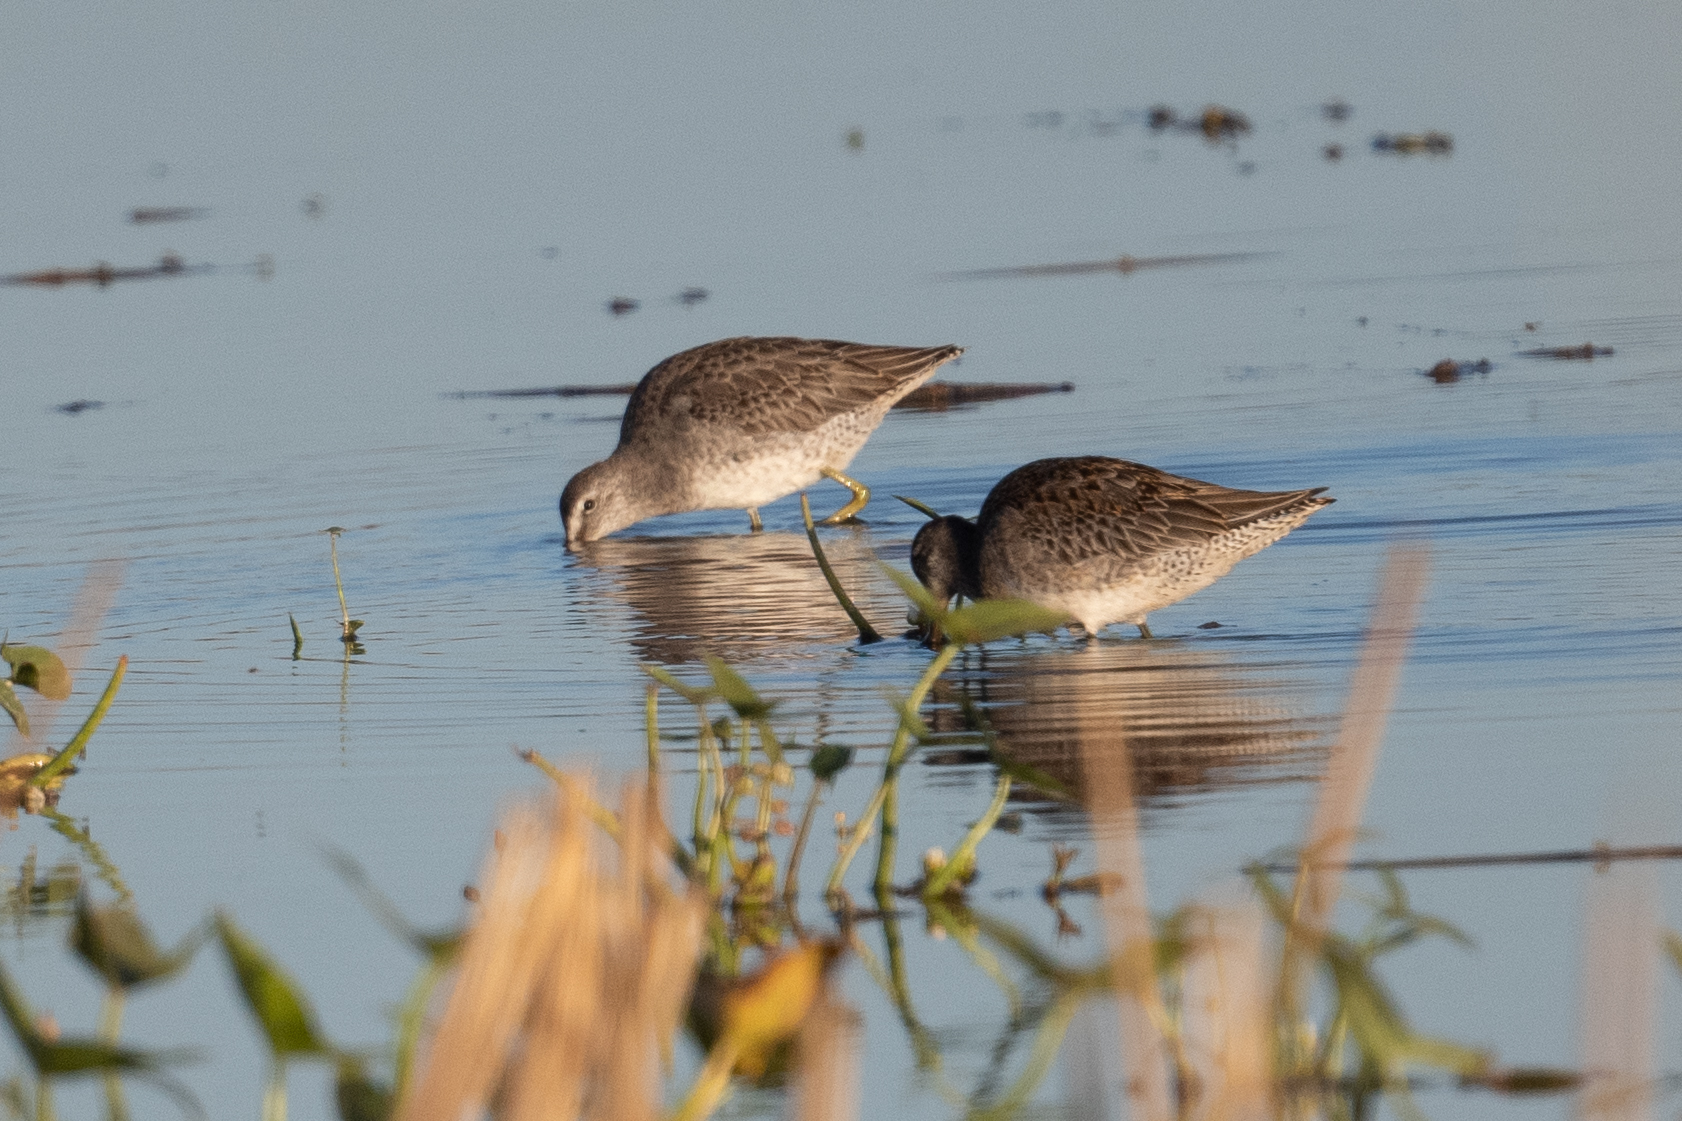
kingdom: Animalia
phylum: Chordata
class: Aves
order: Charadriiformes
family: Scolopacidae
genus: Limnodromus
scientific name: Limnodromus scolopaceus
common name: Long-billed dowitcher
